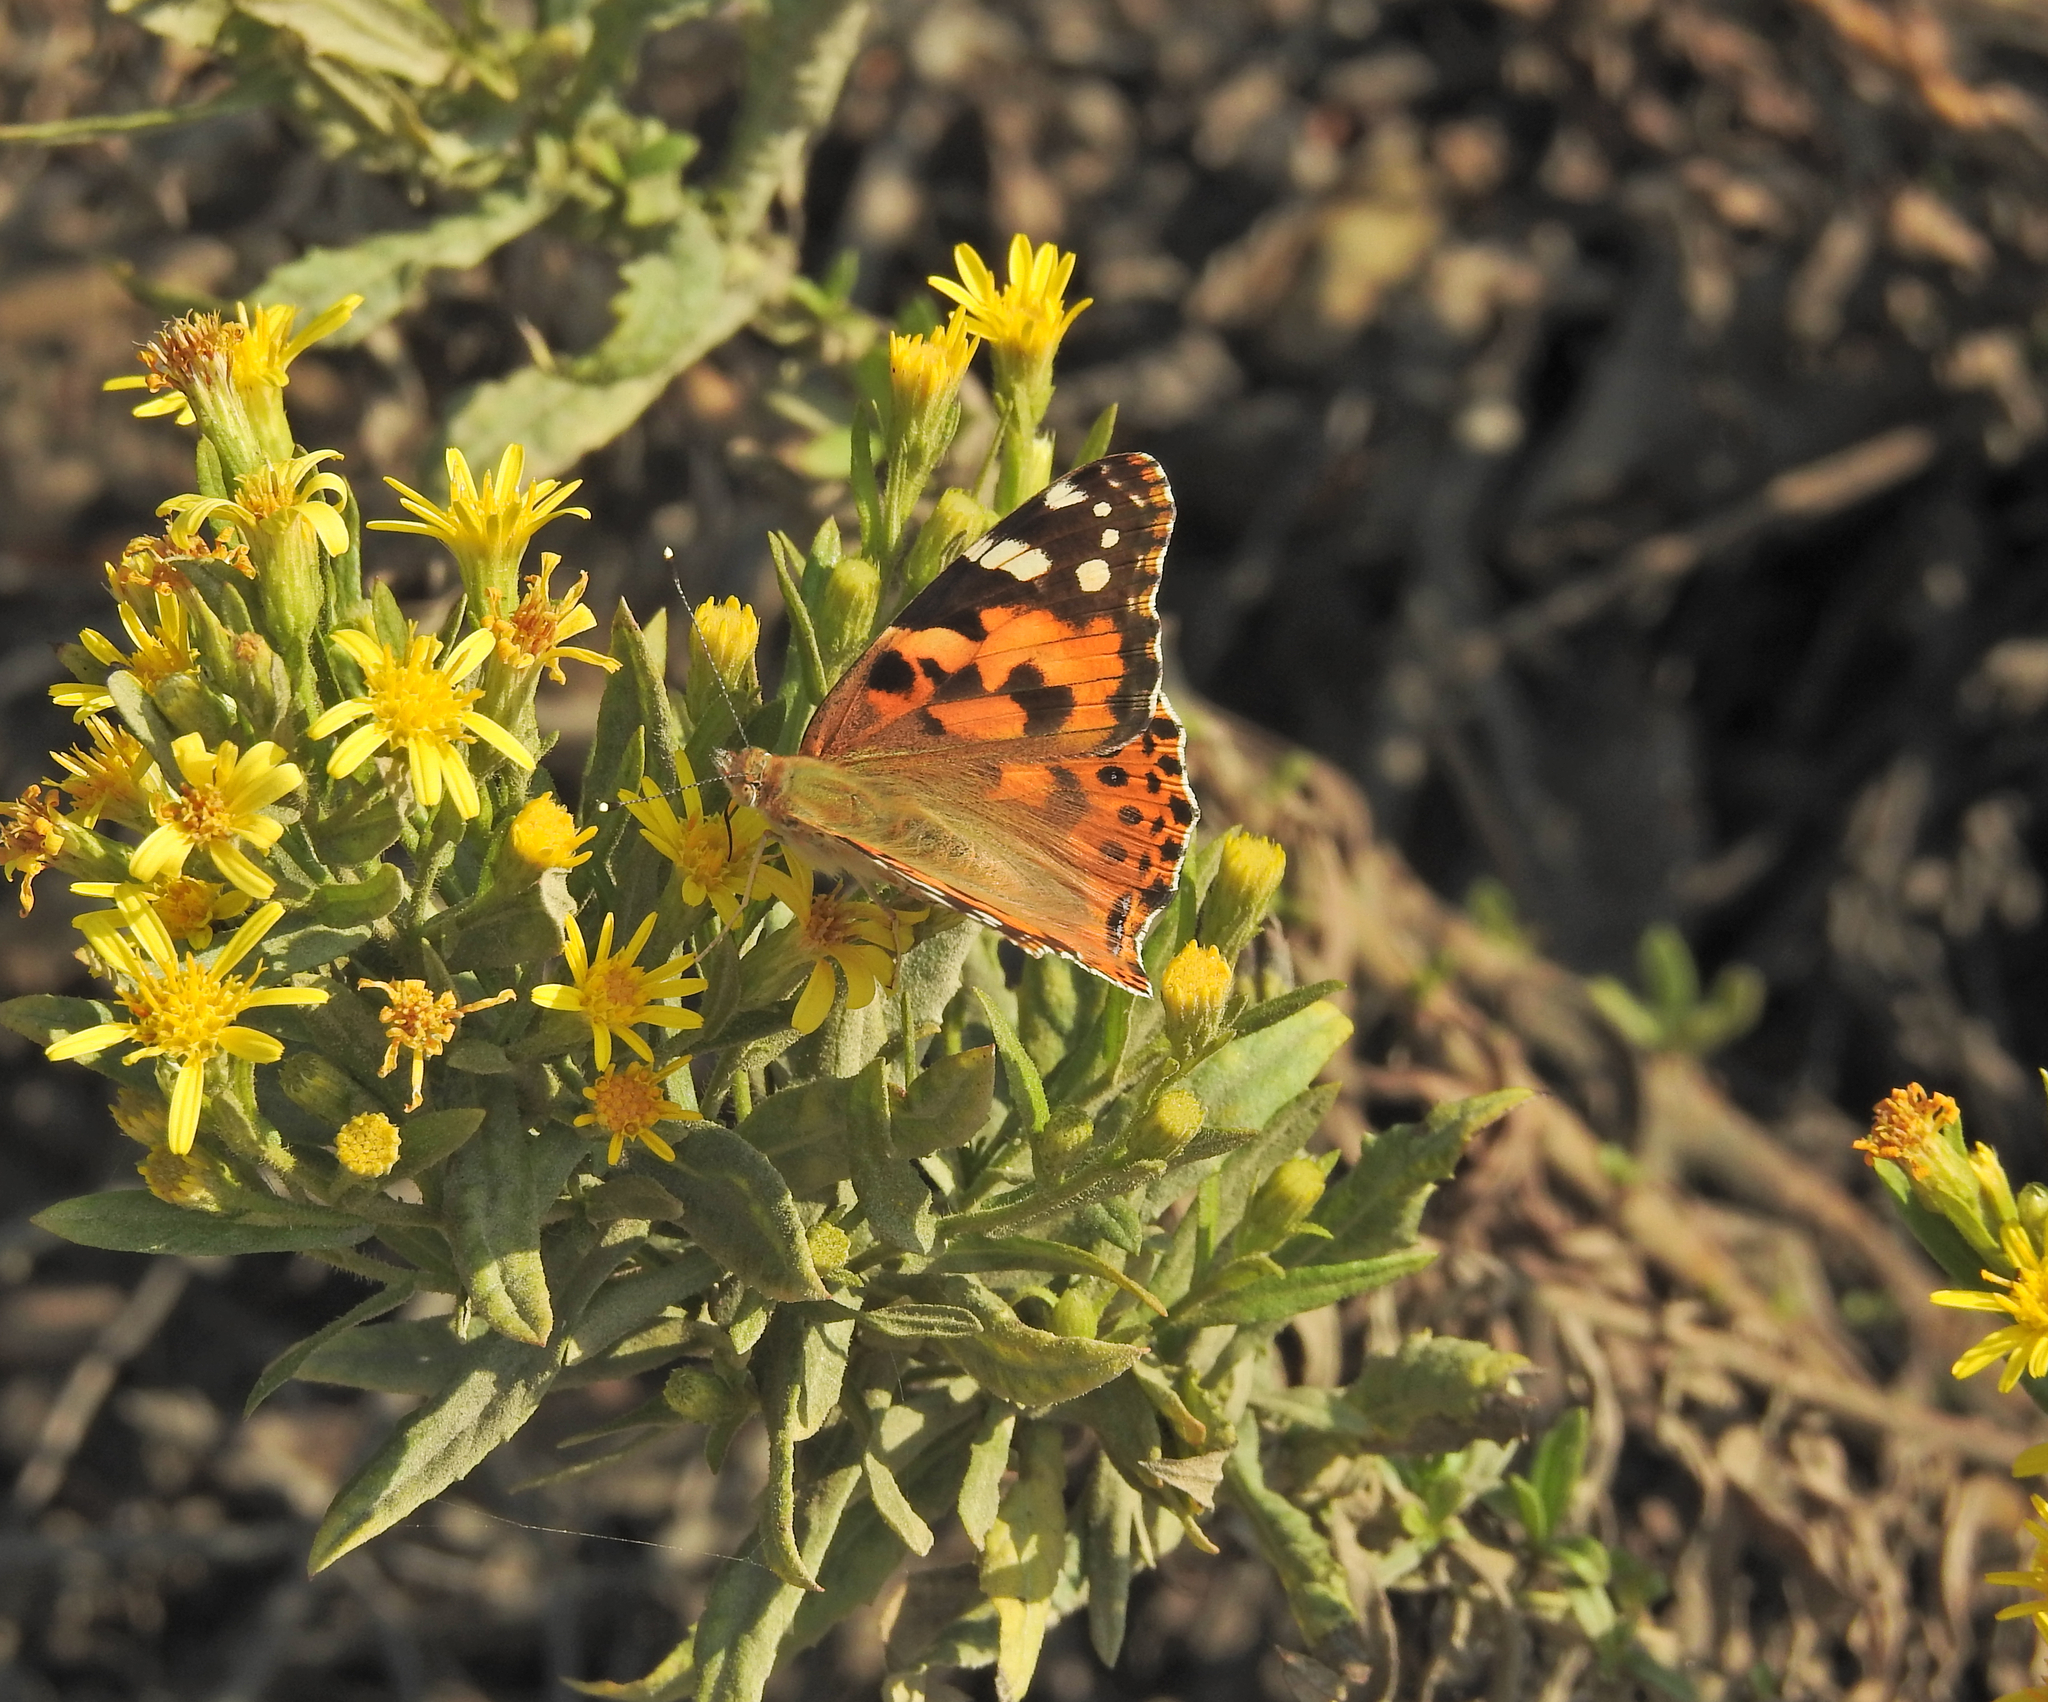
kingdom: Animalia
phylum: Arthropoda
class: Insecta
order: Lepidoptera
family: Nymphalidae
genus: Vanessa
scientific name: Vanessa cardui
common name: Painted lady
